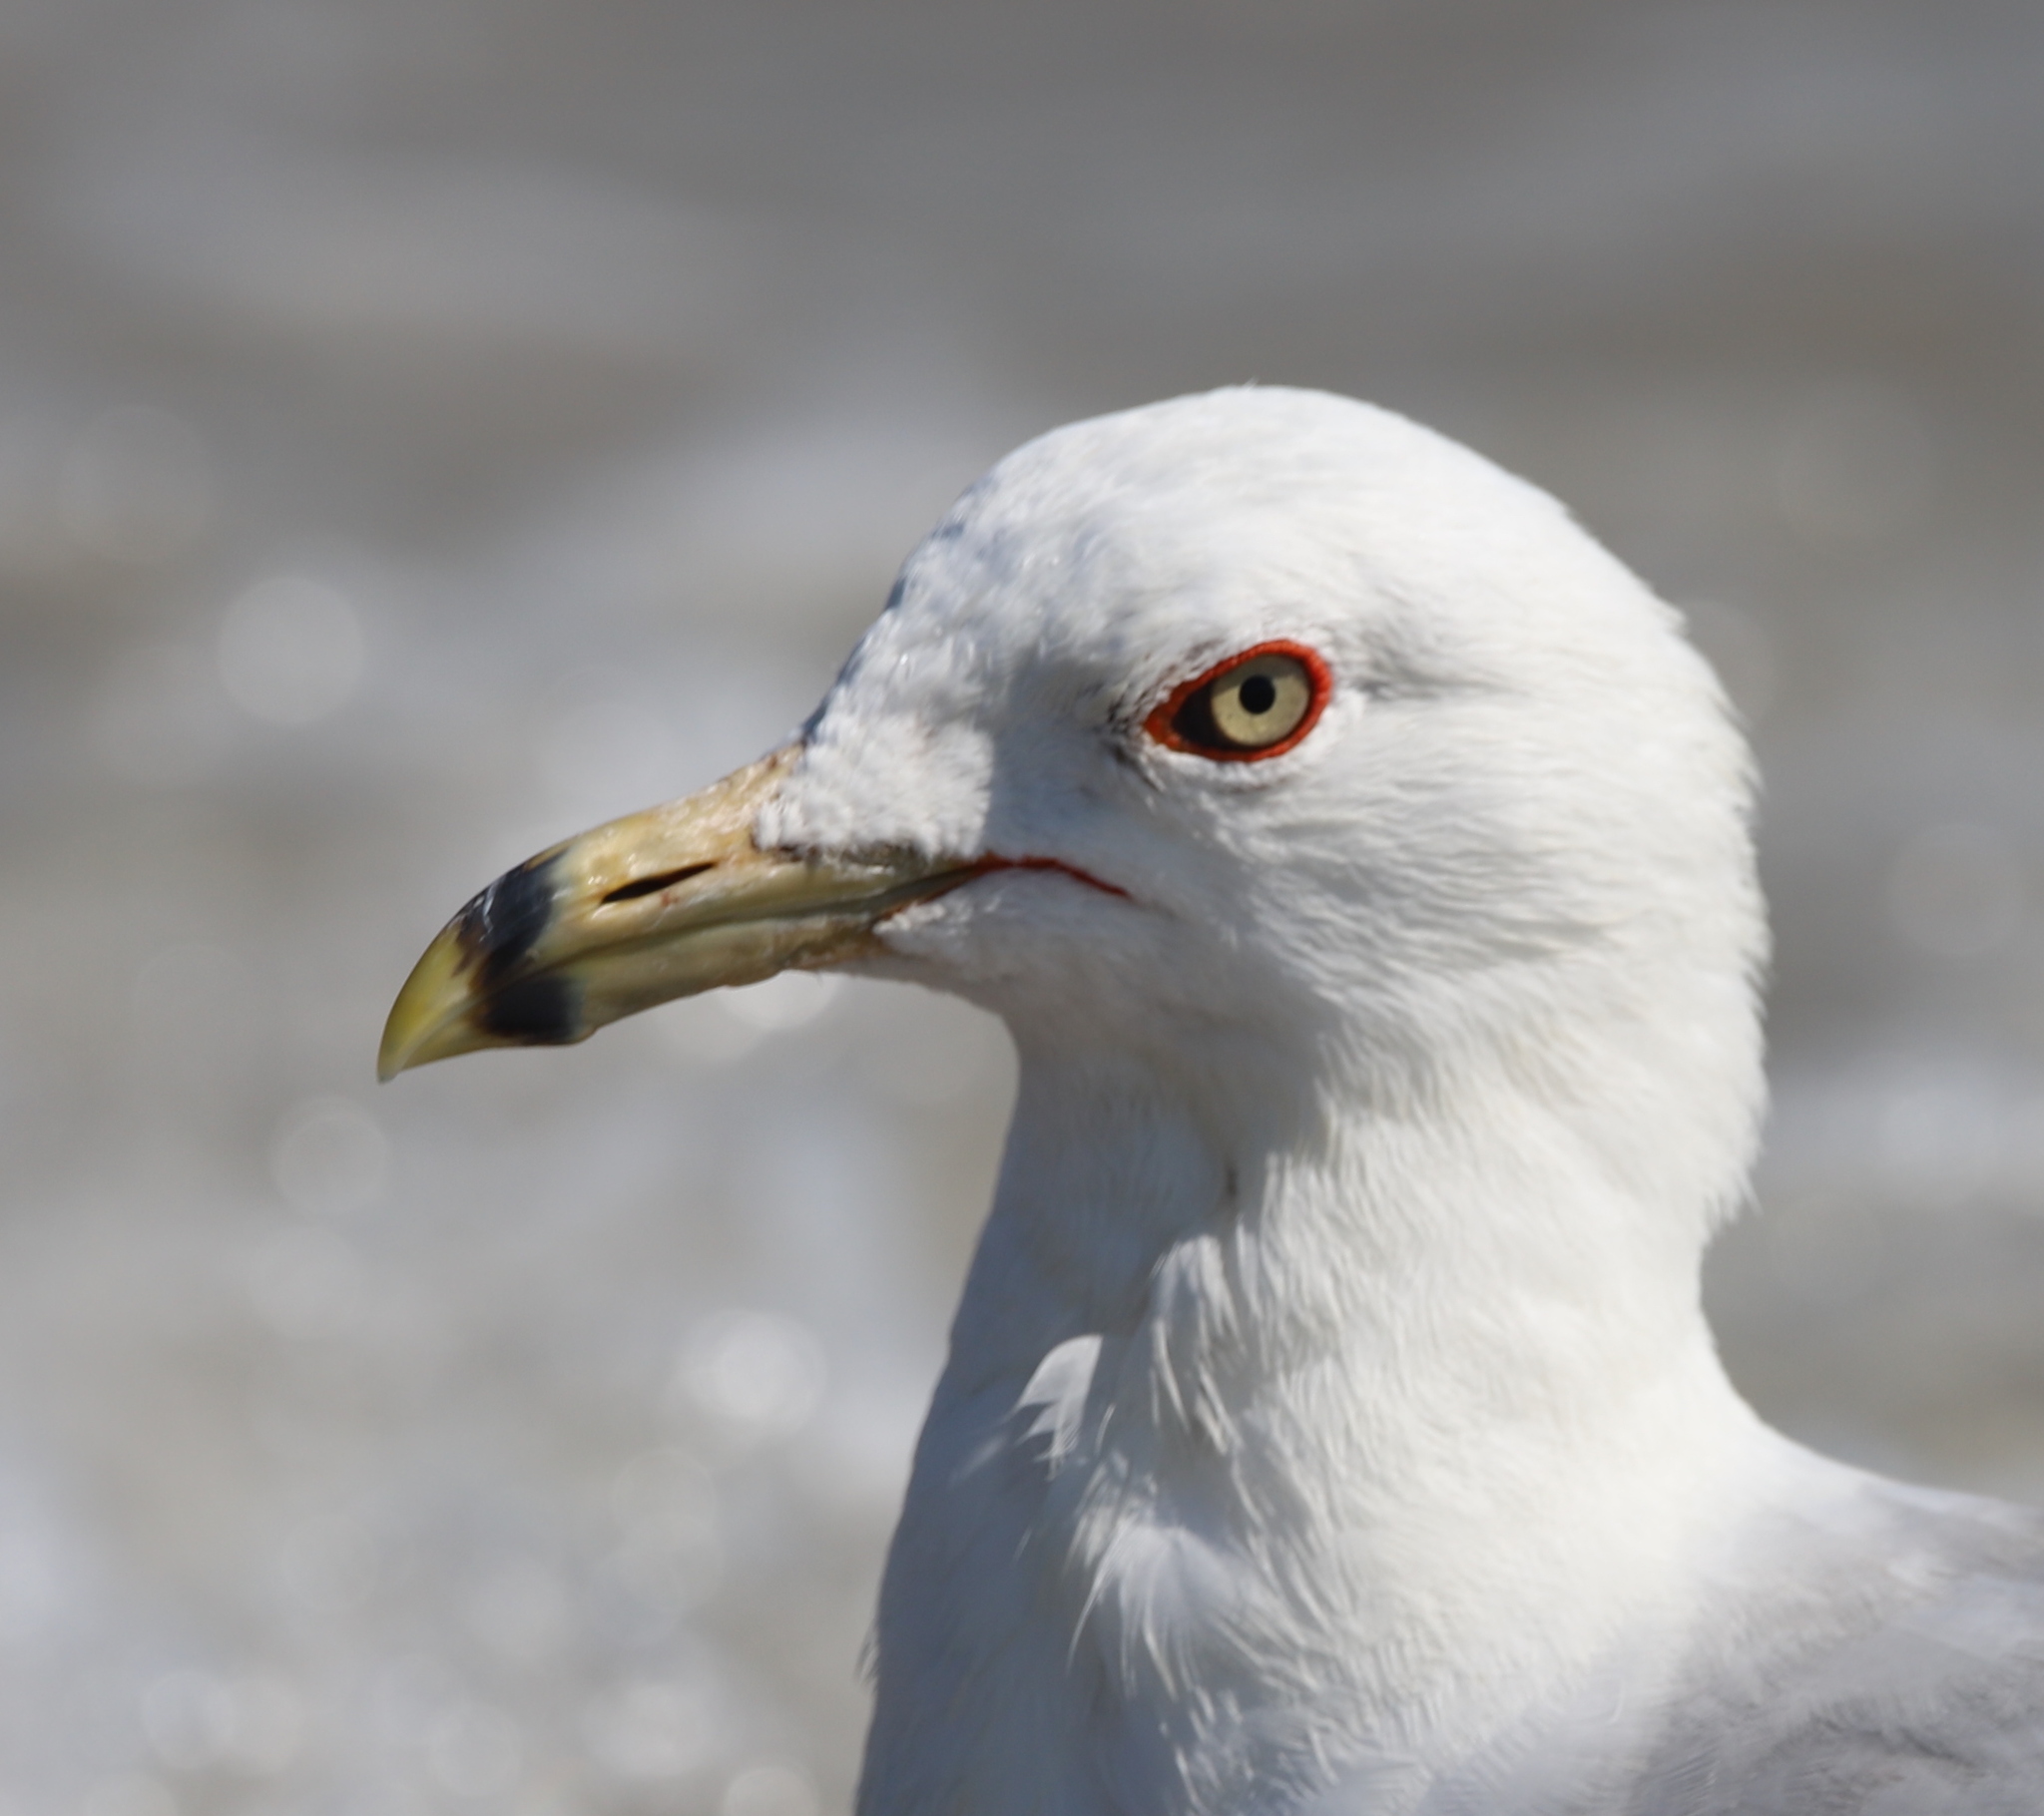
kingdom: Animalia
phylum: Chordata
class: Aves
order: Charadriiformes
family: Laridae
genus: Larus
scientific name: Larus delawarensis
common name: Ring-billed gull
